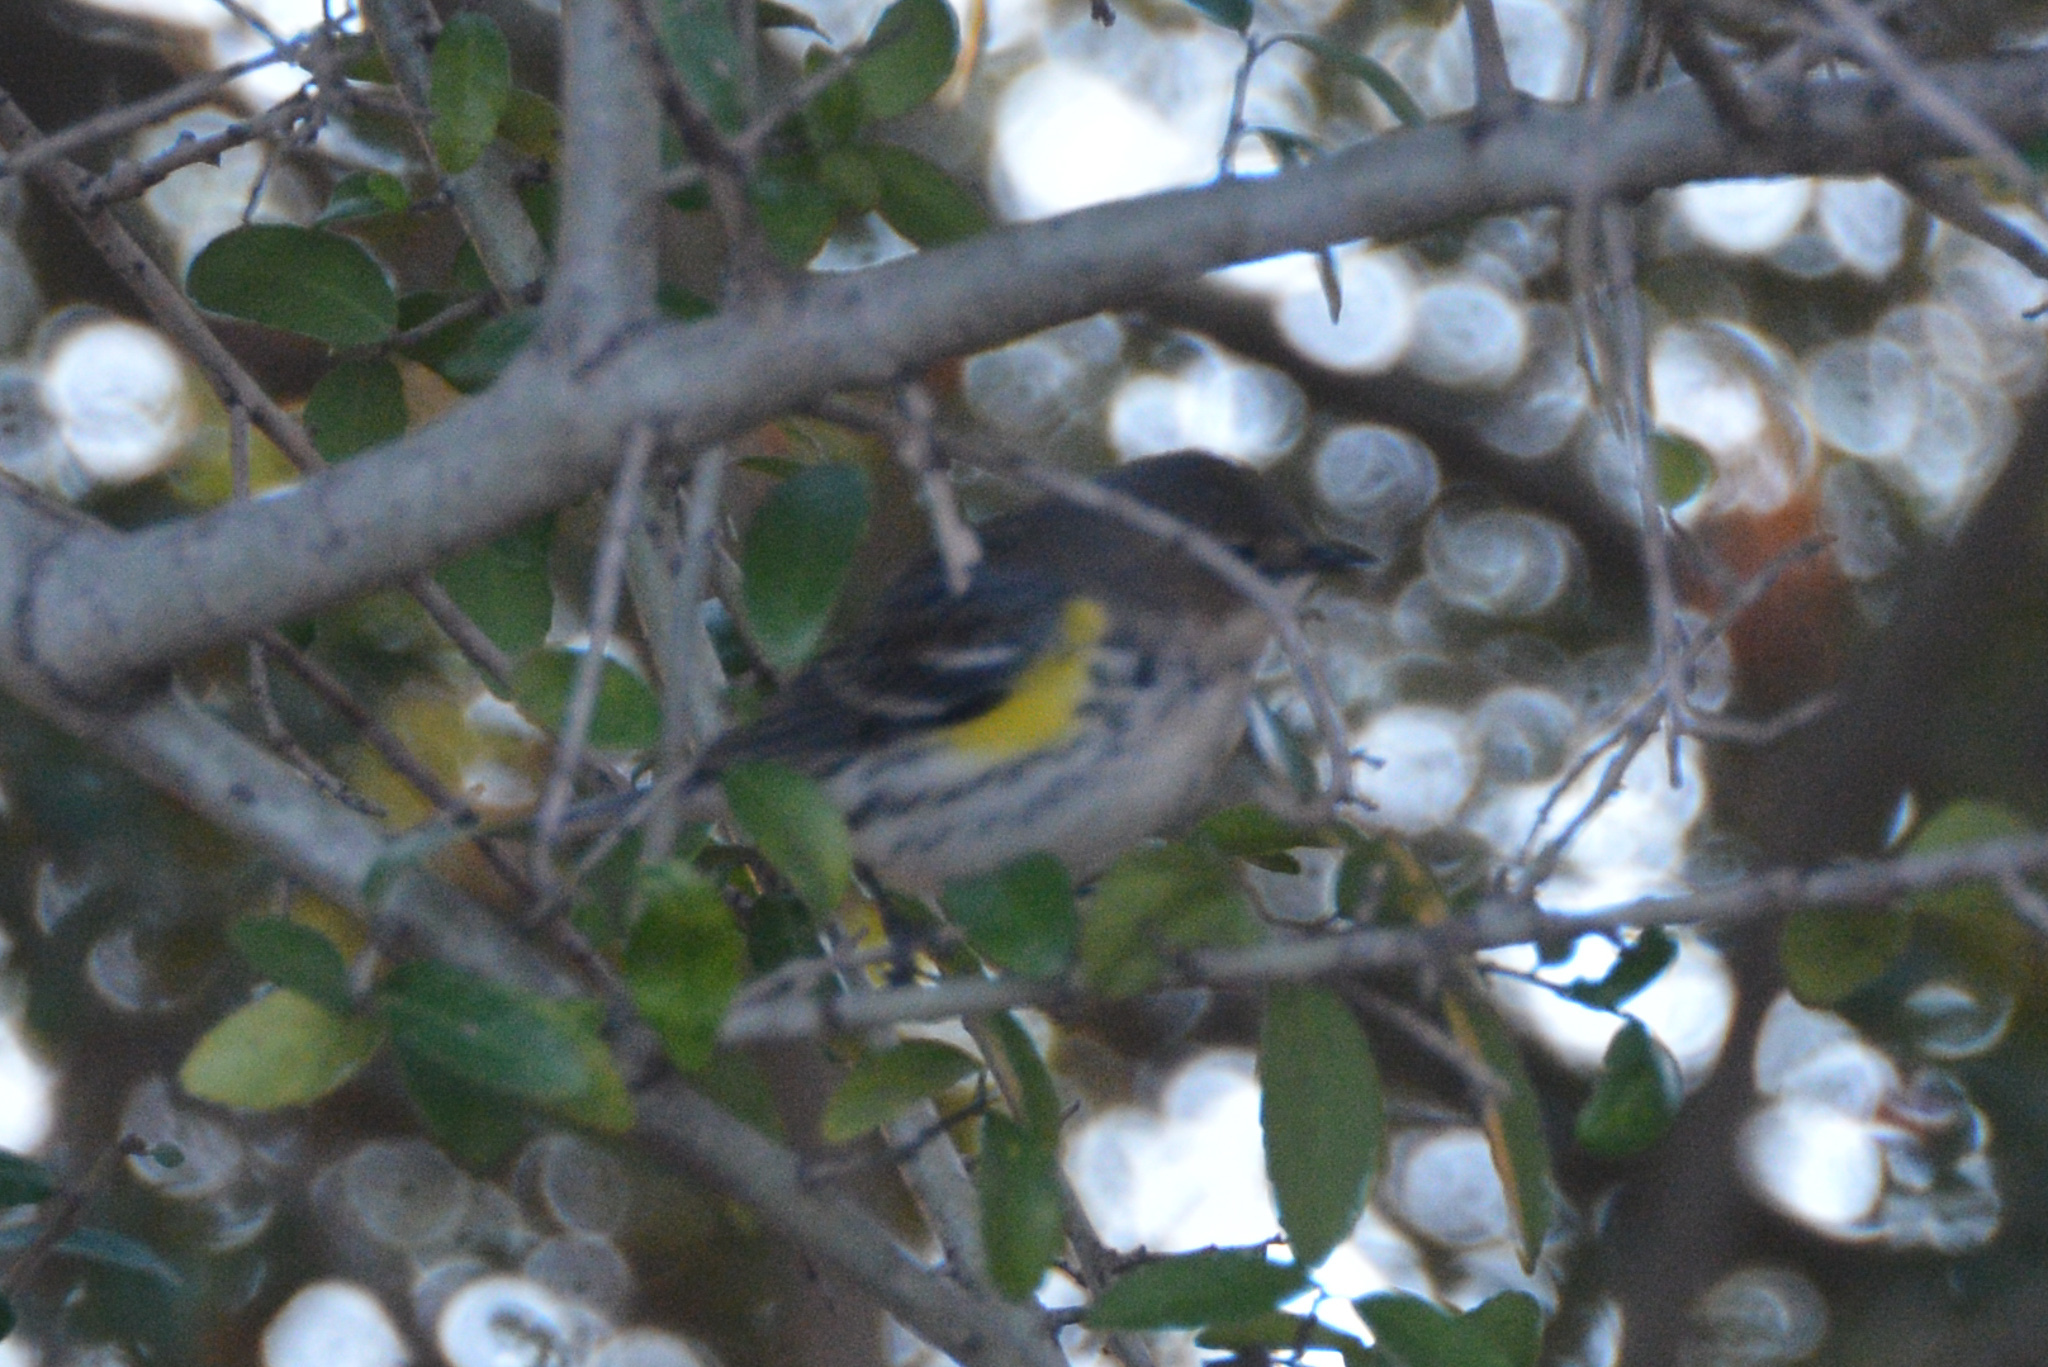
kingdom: Animalia
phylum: Chordata
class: Aves
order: Passeriformes
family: Parulidae
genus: Setophaga
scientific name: Setophaga coronata
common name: Myrtle warbler
